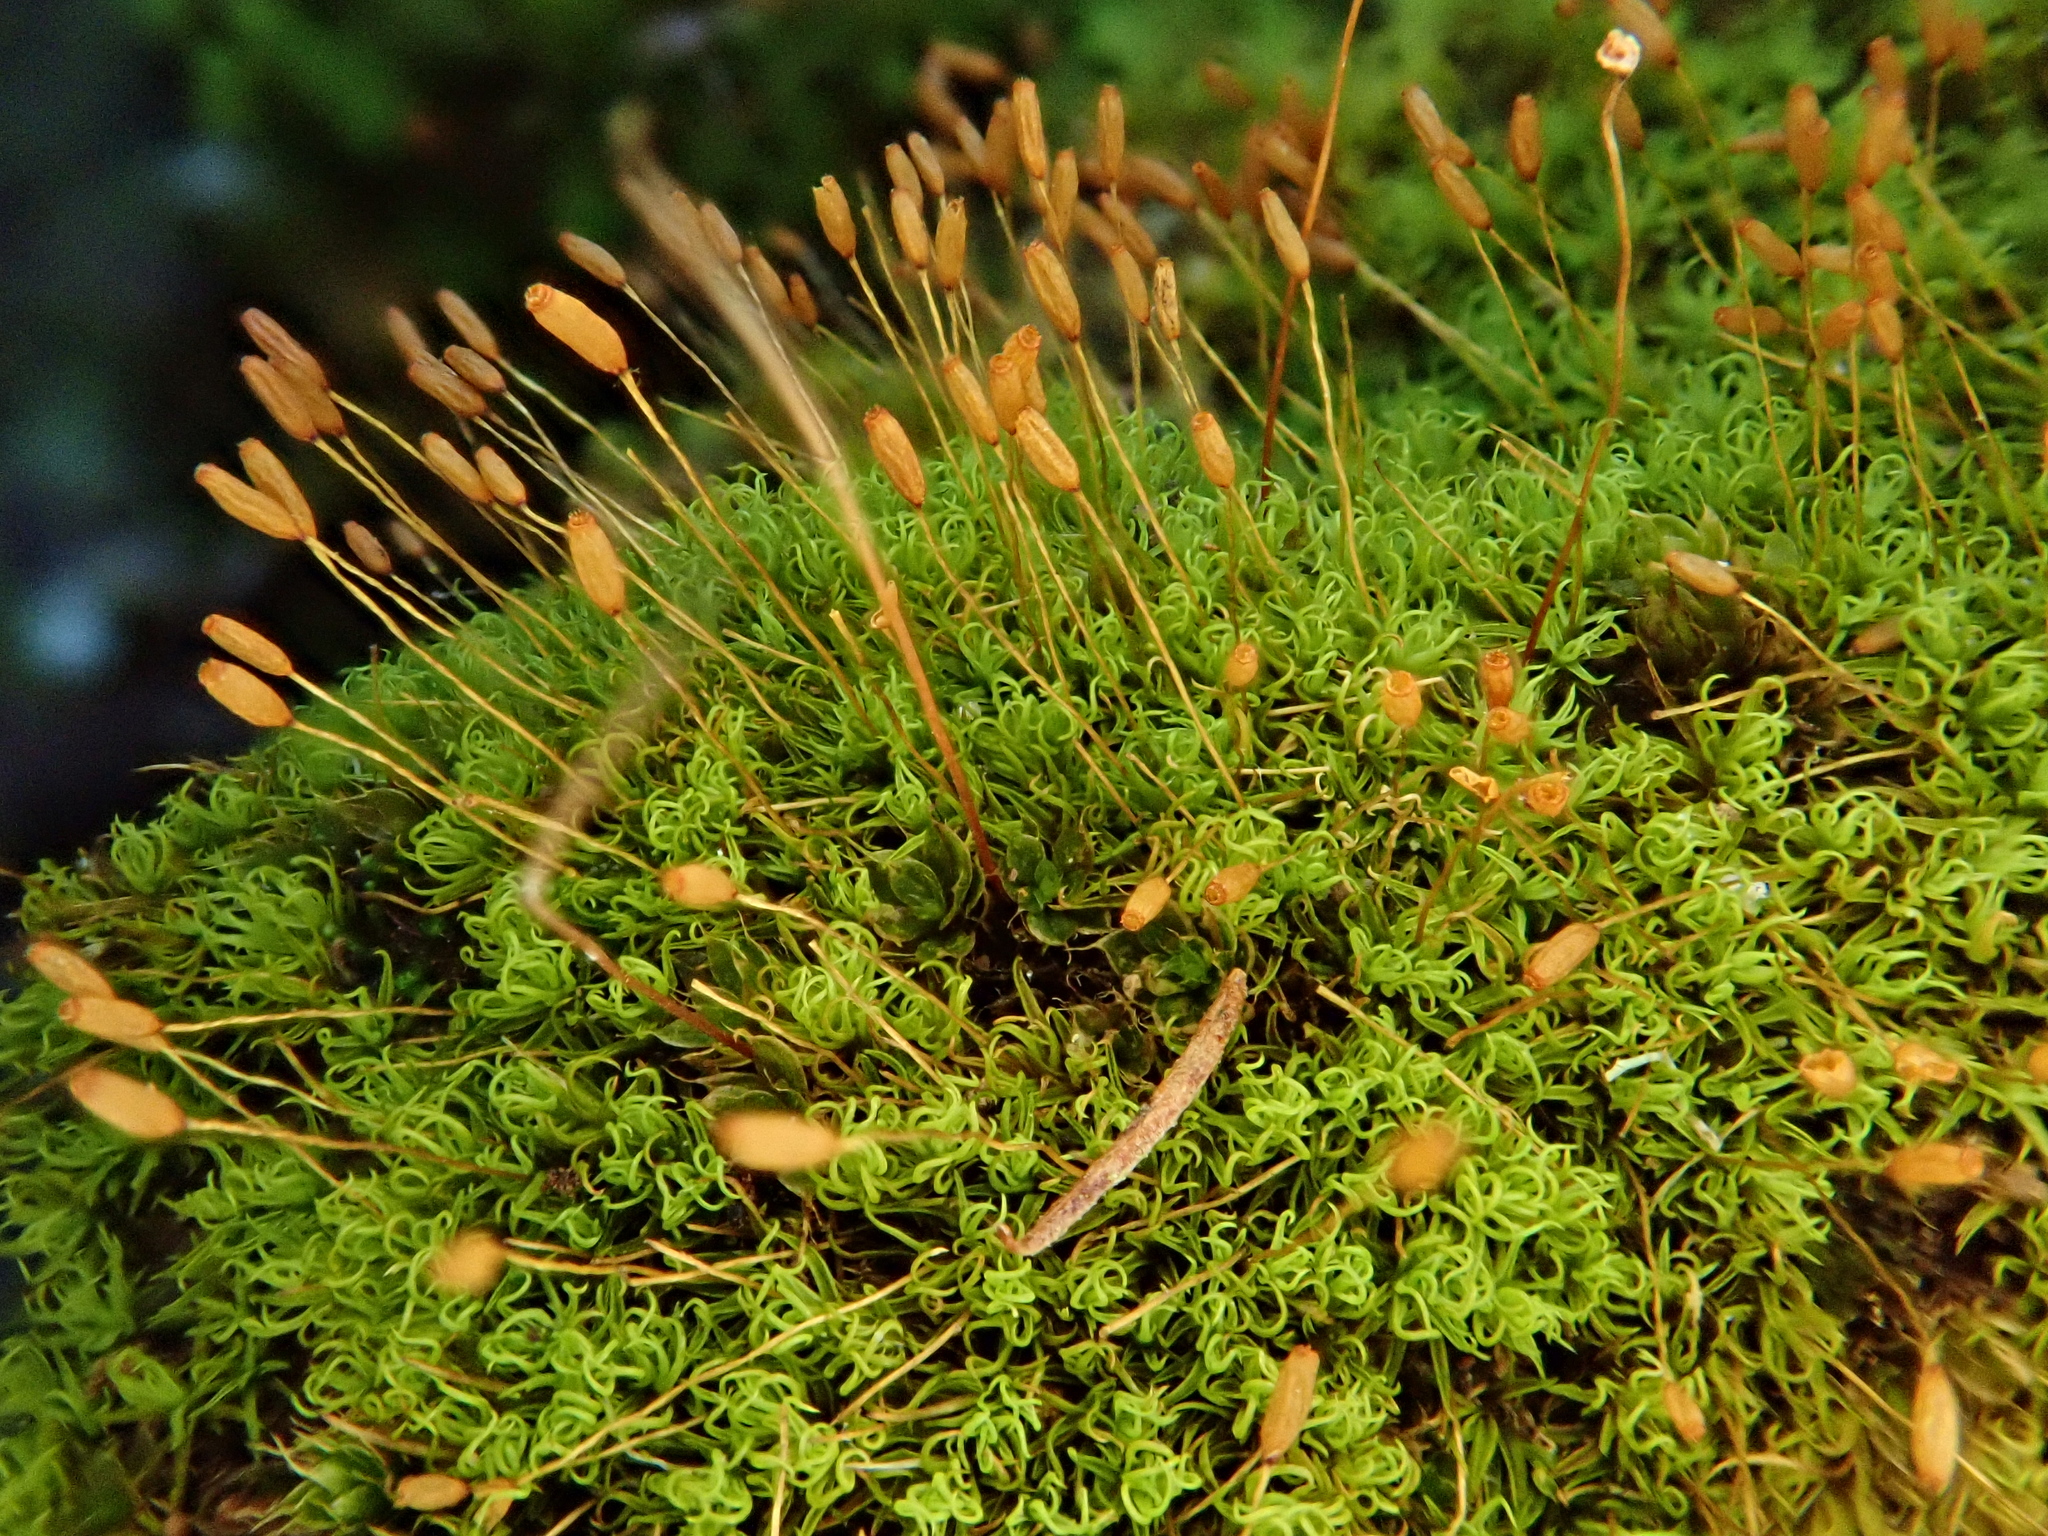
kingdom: Plantae
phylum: Bryophyta
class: Bryopsida
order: Pottiales
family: Pottiaceae
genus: Weissia
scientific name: Weissia controversa
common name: Green-tufted stubble moss
